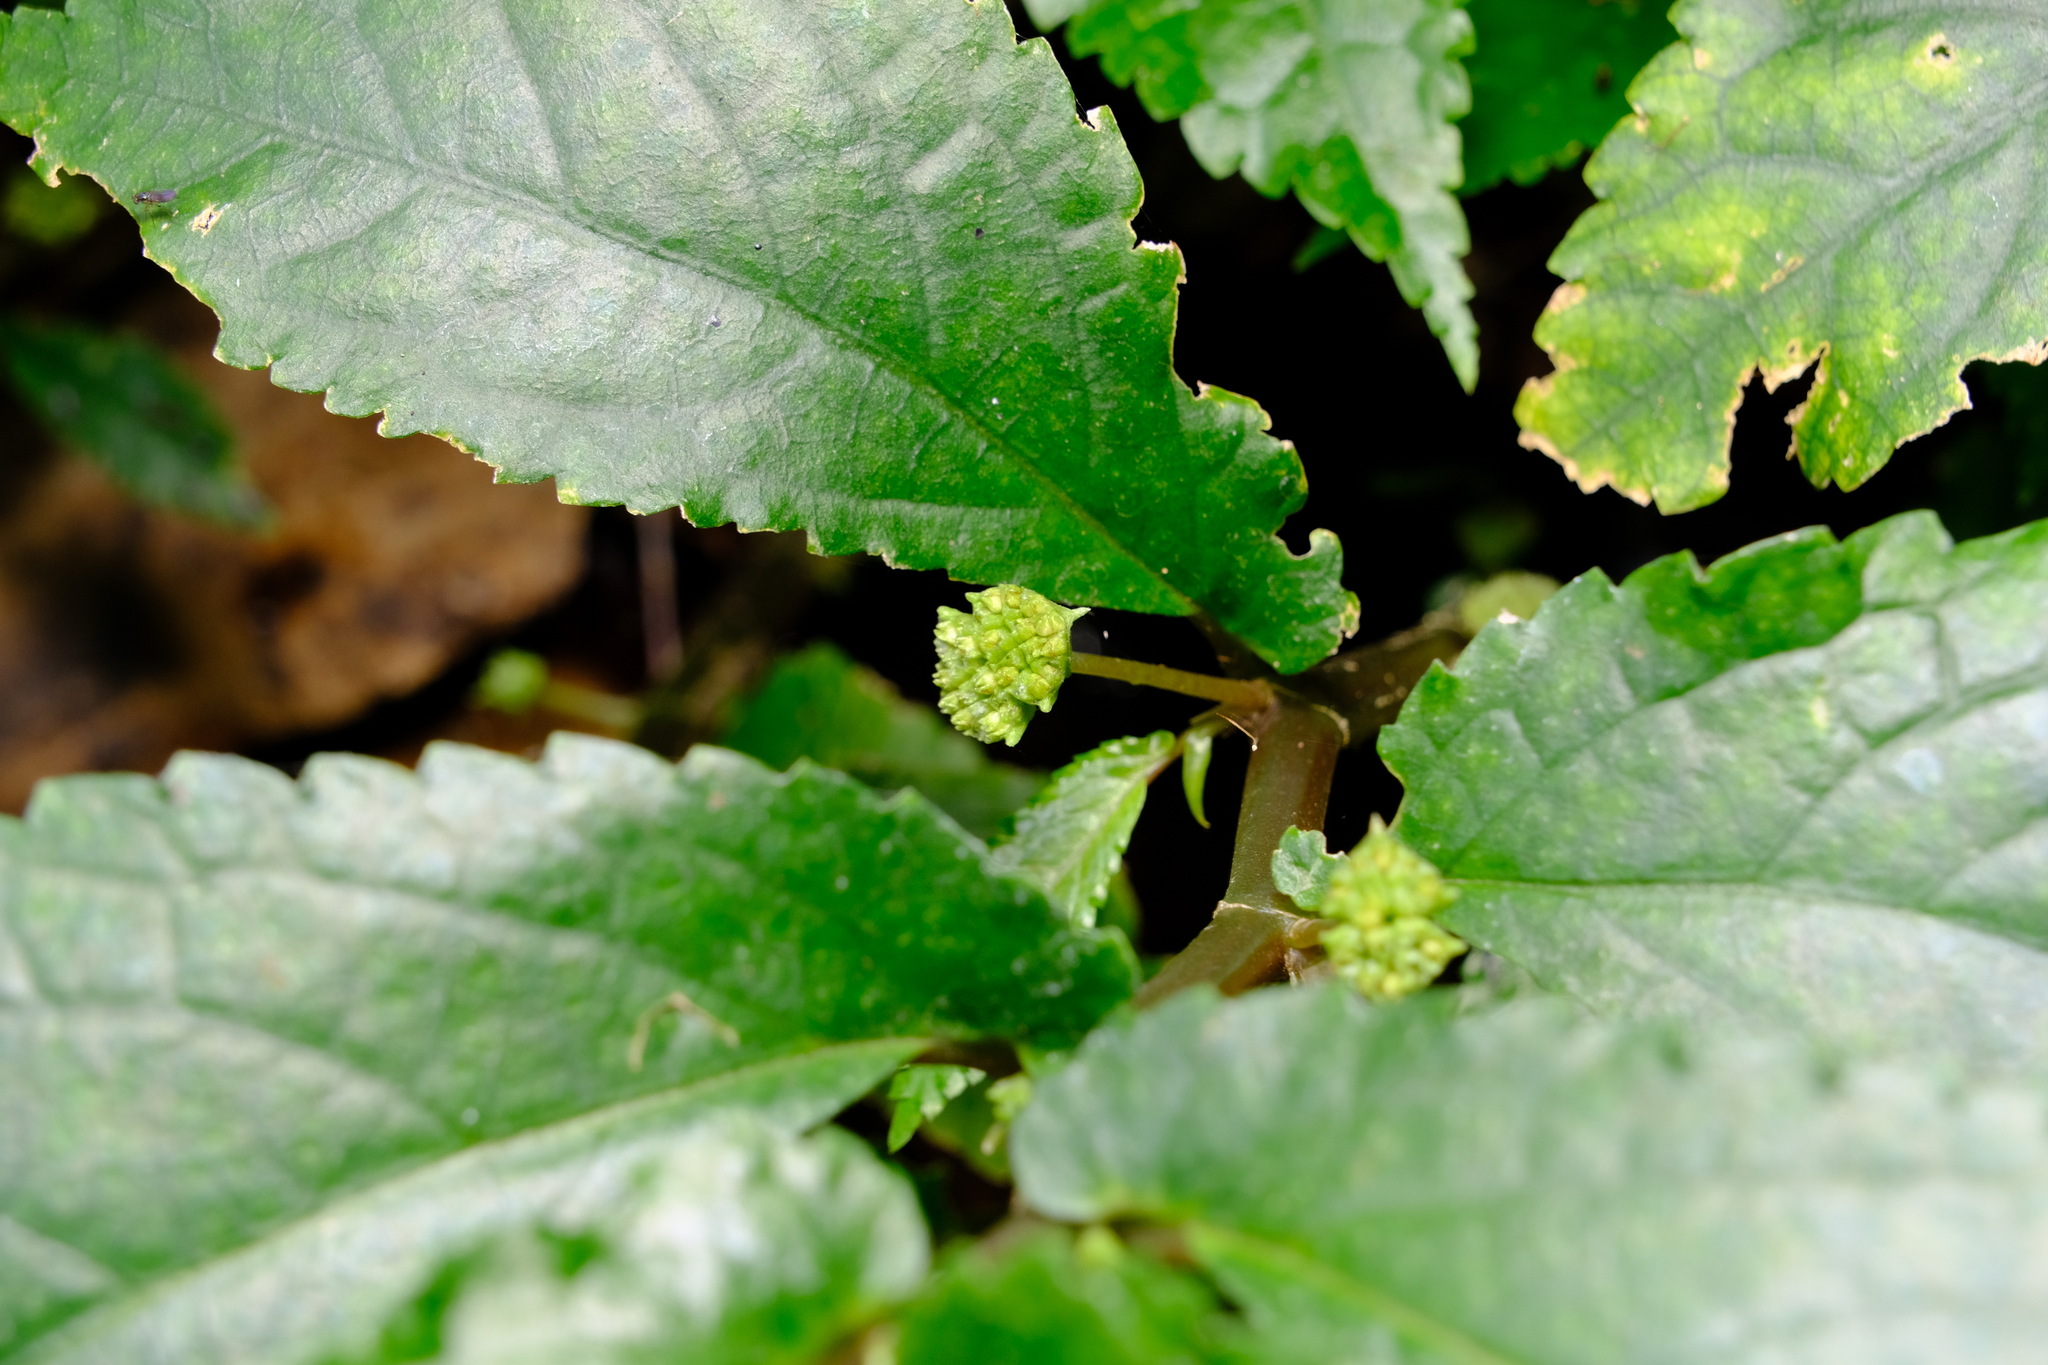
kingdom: Plantae
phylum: Tracheophyta
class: Magnoliopsida
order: Rosales
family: Urticaceae
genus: Elatostema
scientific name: Elatostema reticulatum
